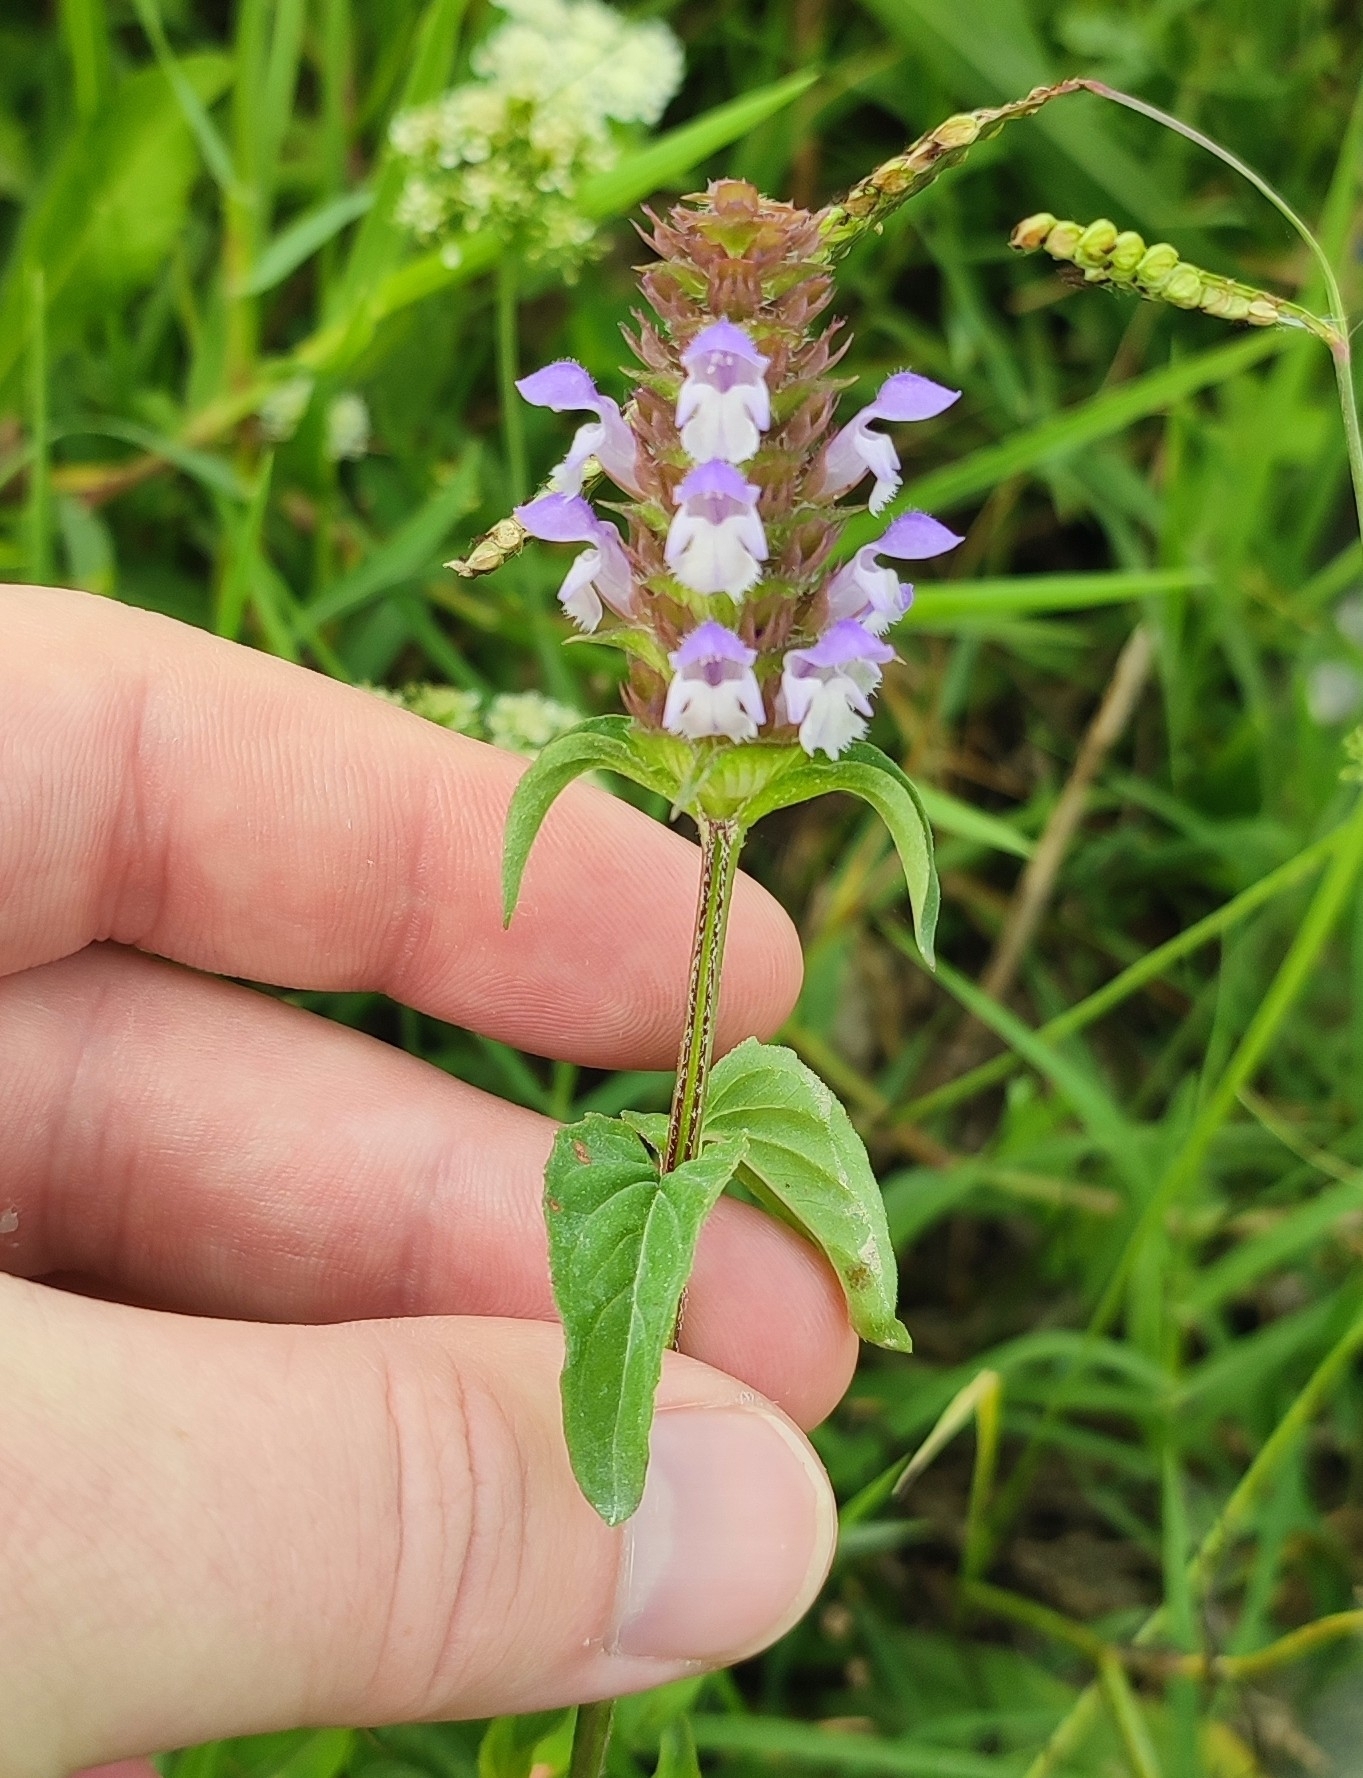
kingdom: Plantae
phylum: Tracheophyta
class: Magnoliopsida
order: Lamiales
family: Lamiaceae
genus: Prunella
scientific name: Prunella vulgaris
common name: Heal-all
